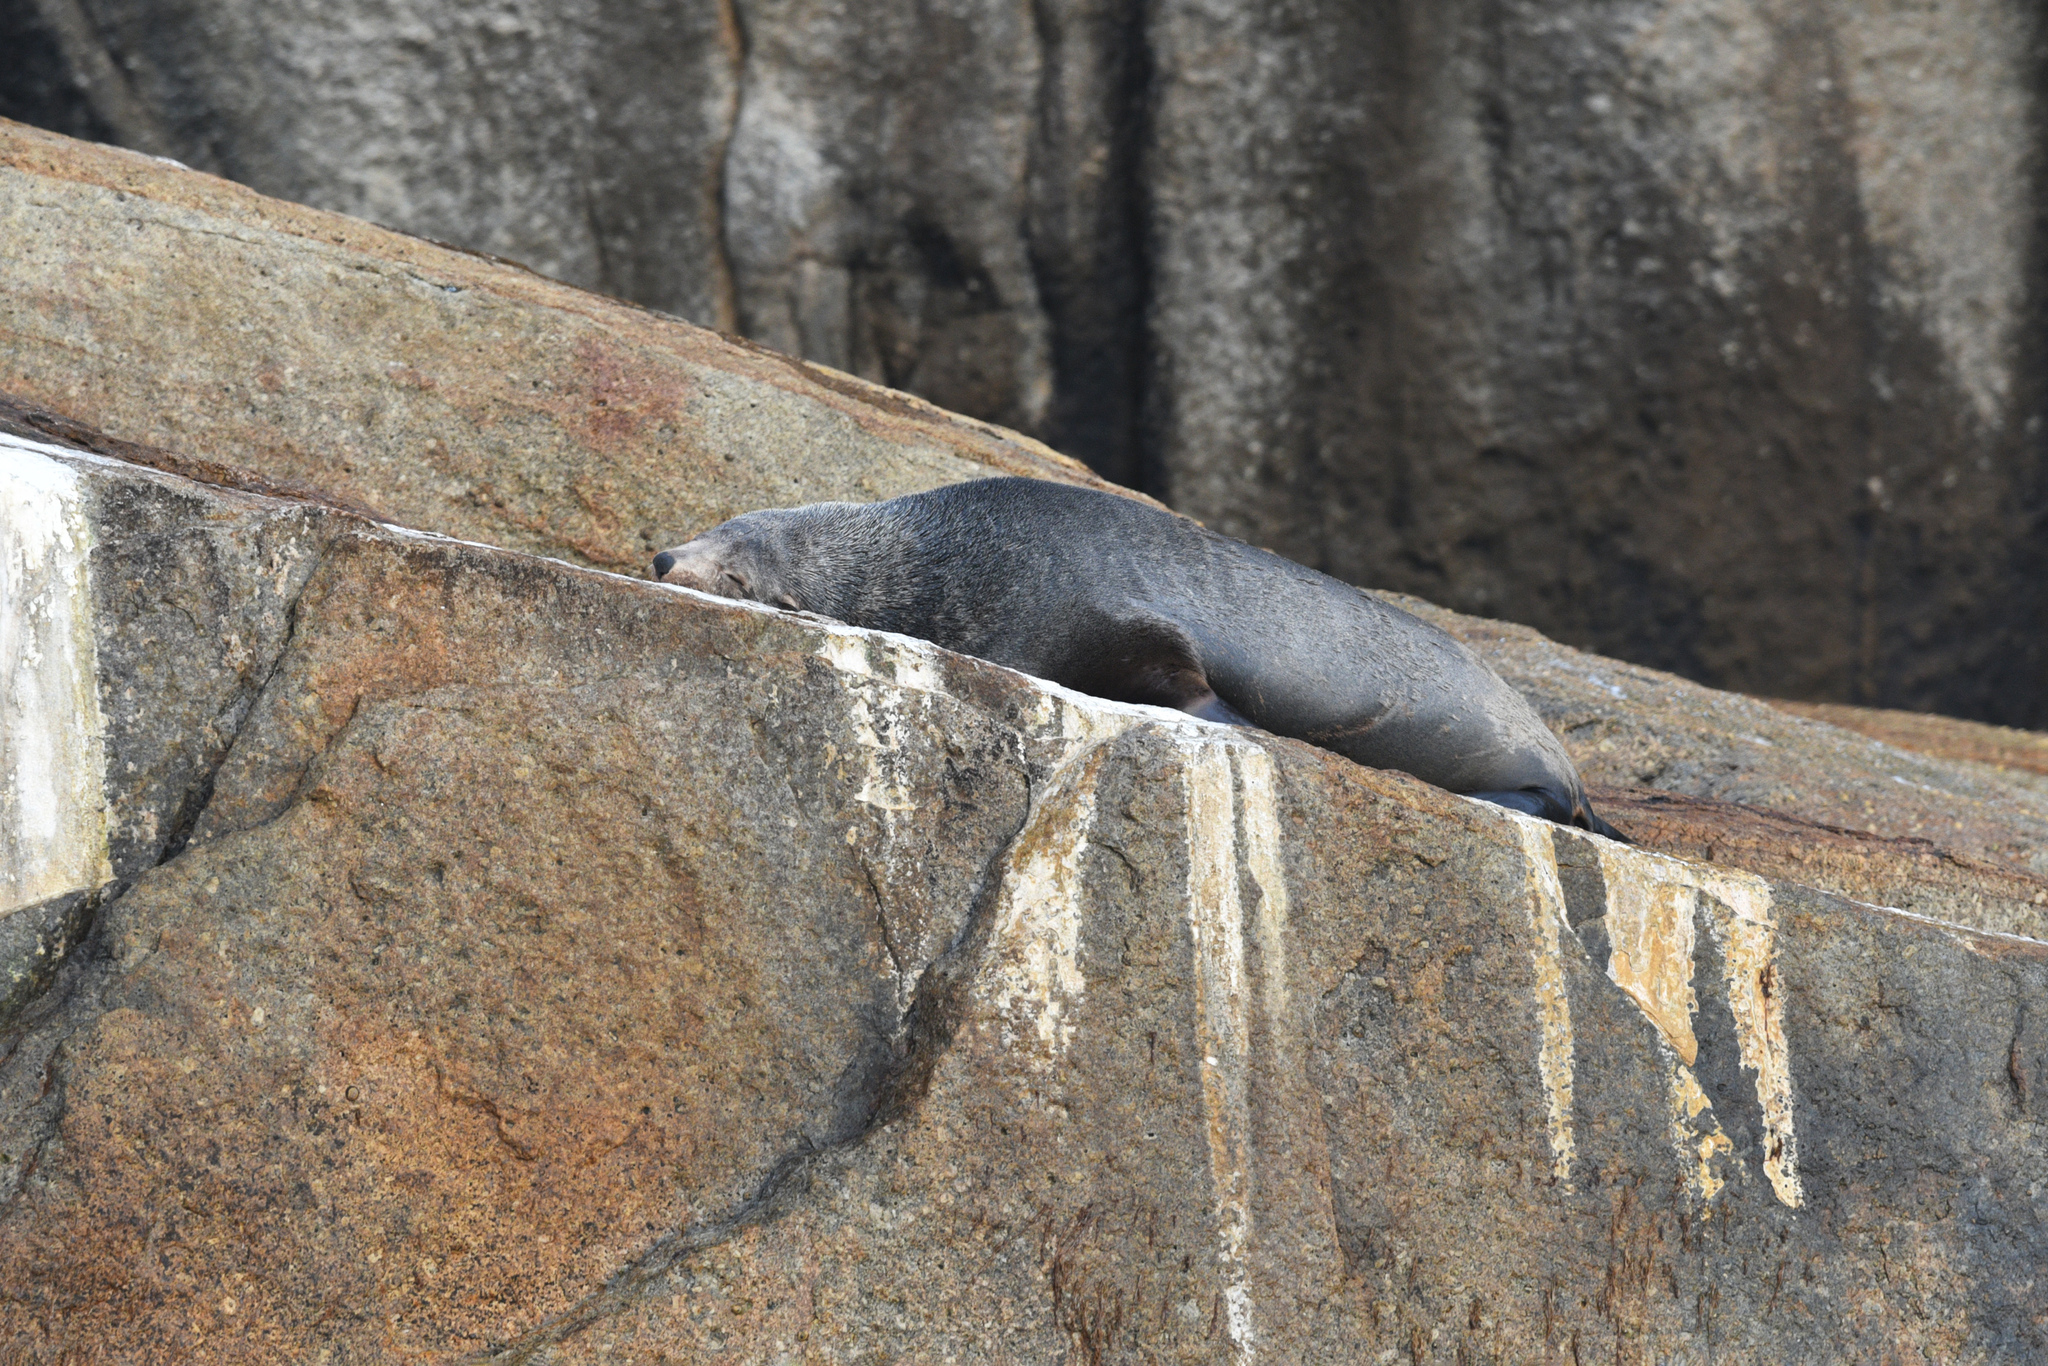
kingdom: Animalia
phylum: Chordata
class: Mammalia
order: Carnivora
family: Otariidae
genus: Arctocephalus
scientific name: Arctocephalus forsteri
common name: New zealand fur seal
